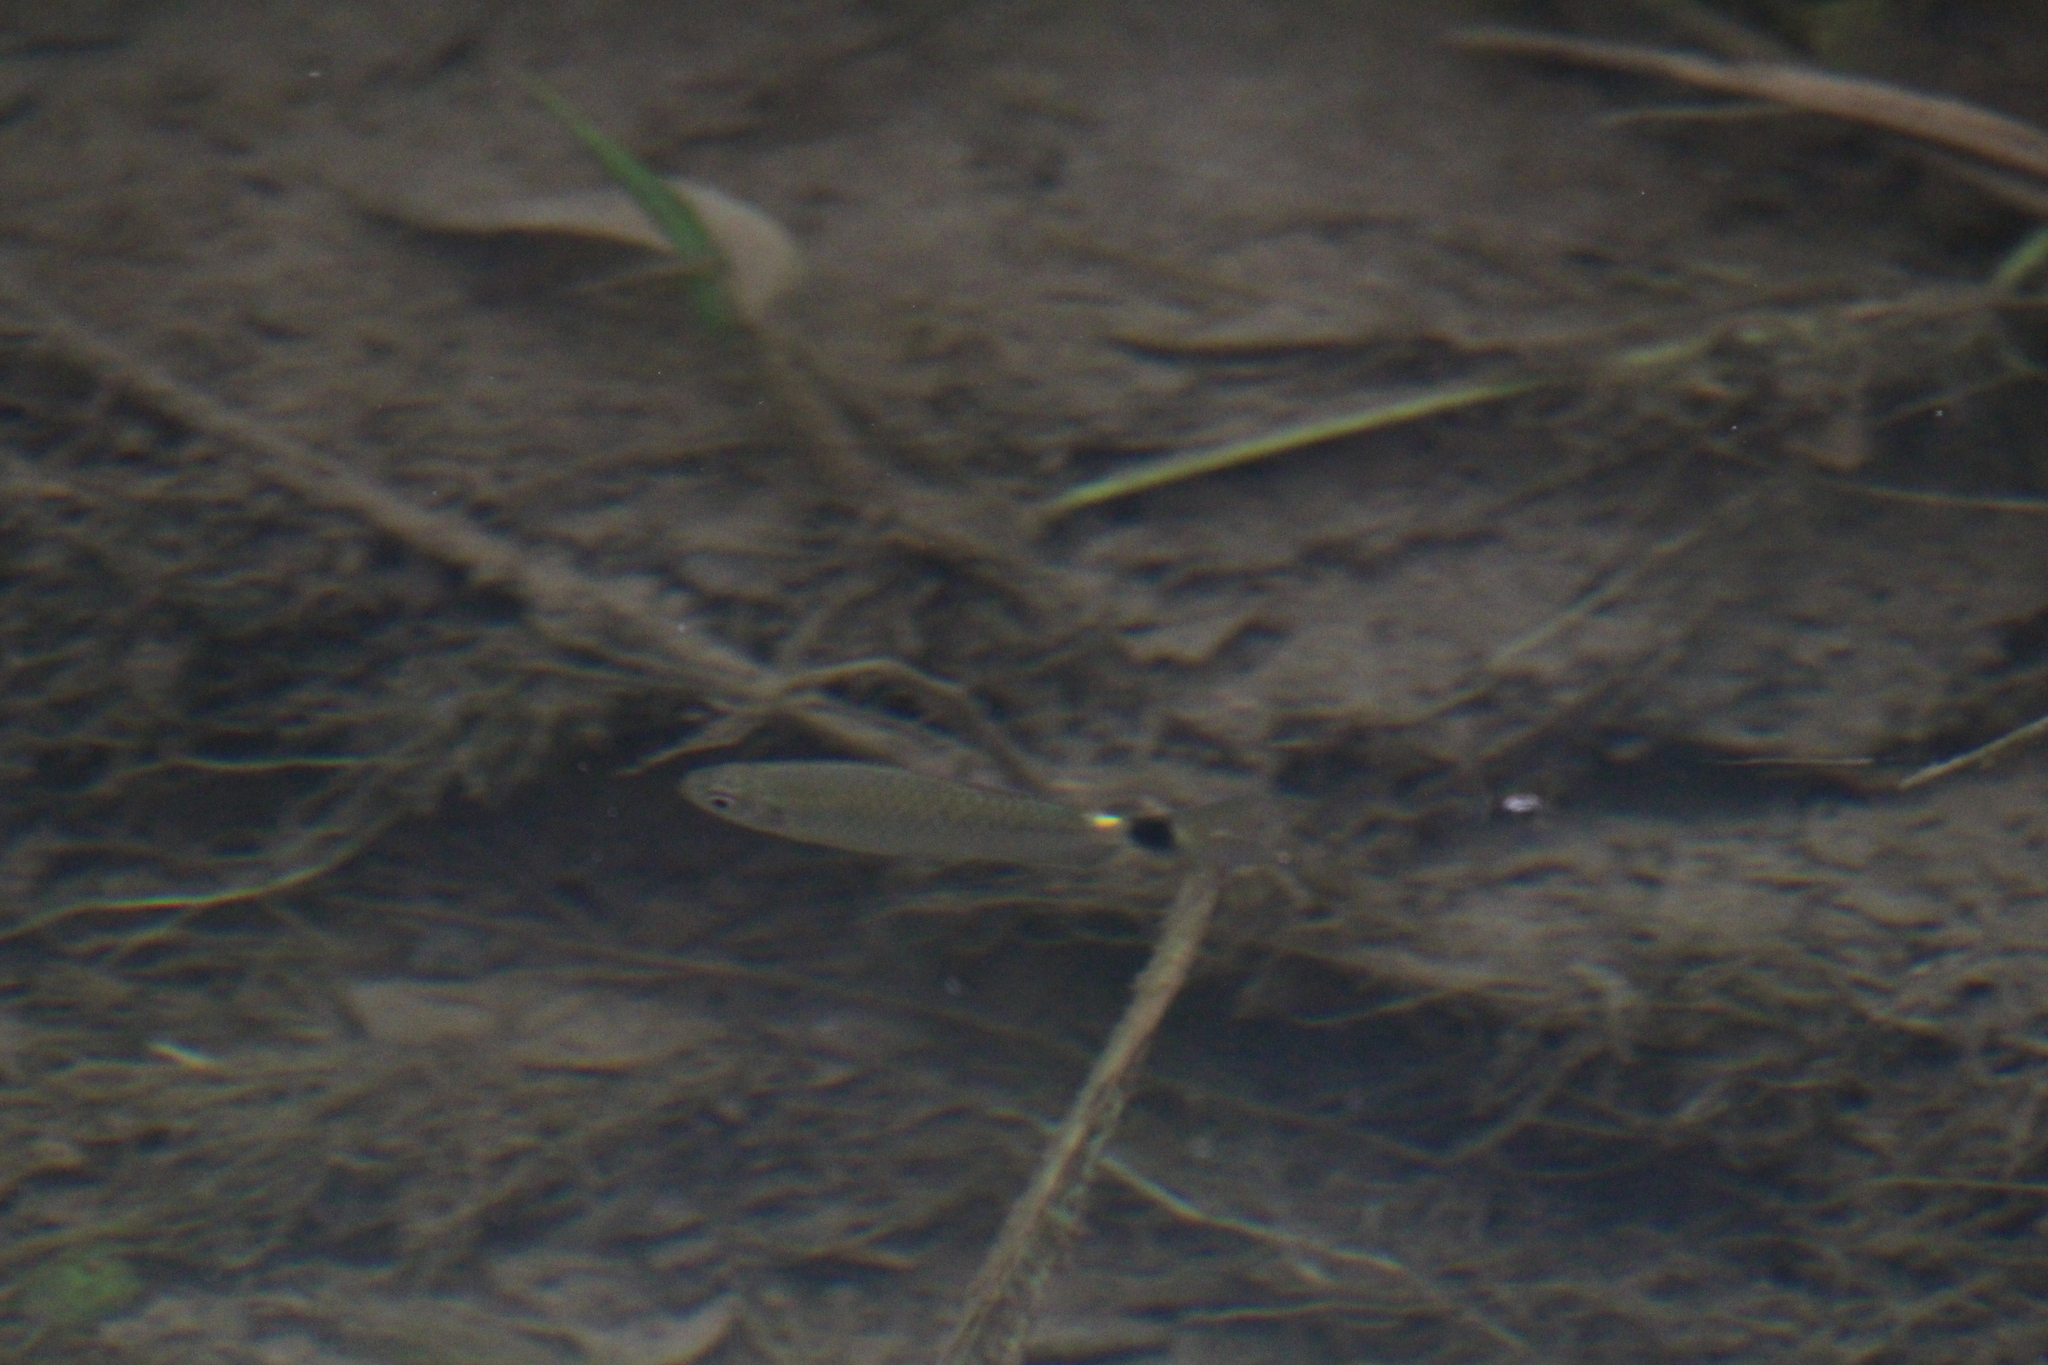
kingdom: Animalia
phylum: Chordata
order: Characiformes
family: Characidae
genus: Moenkhausia
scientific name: Moenkhausia oligolepis
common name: Glass tetra
